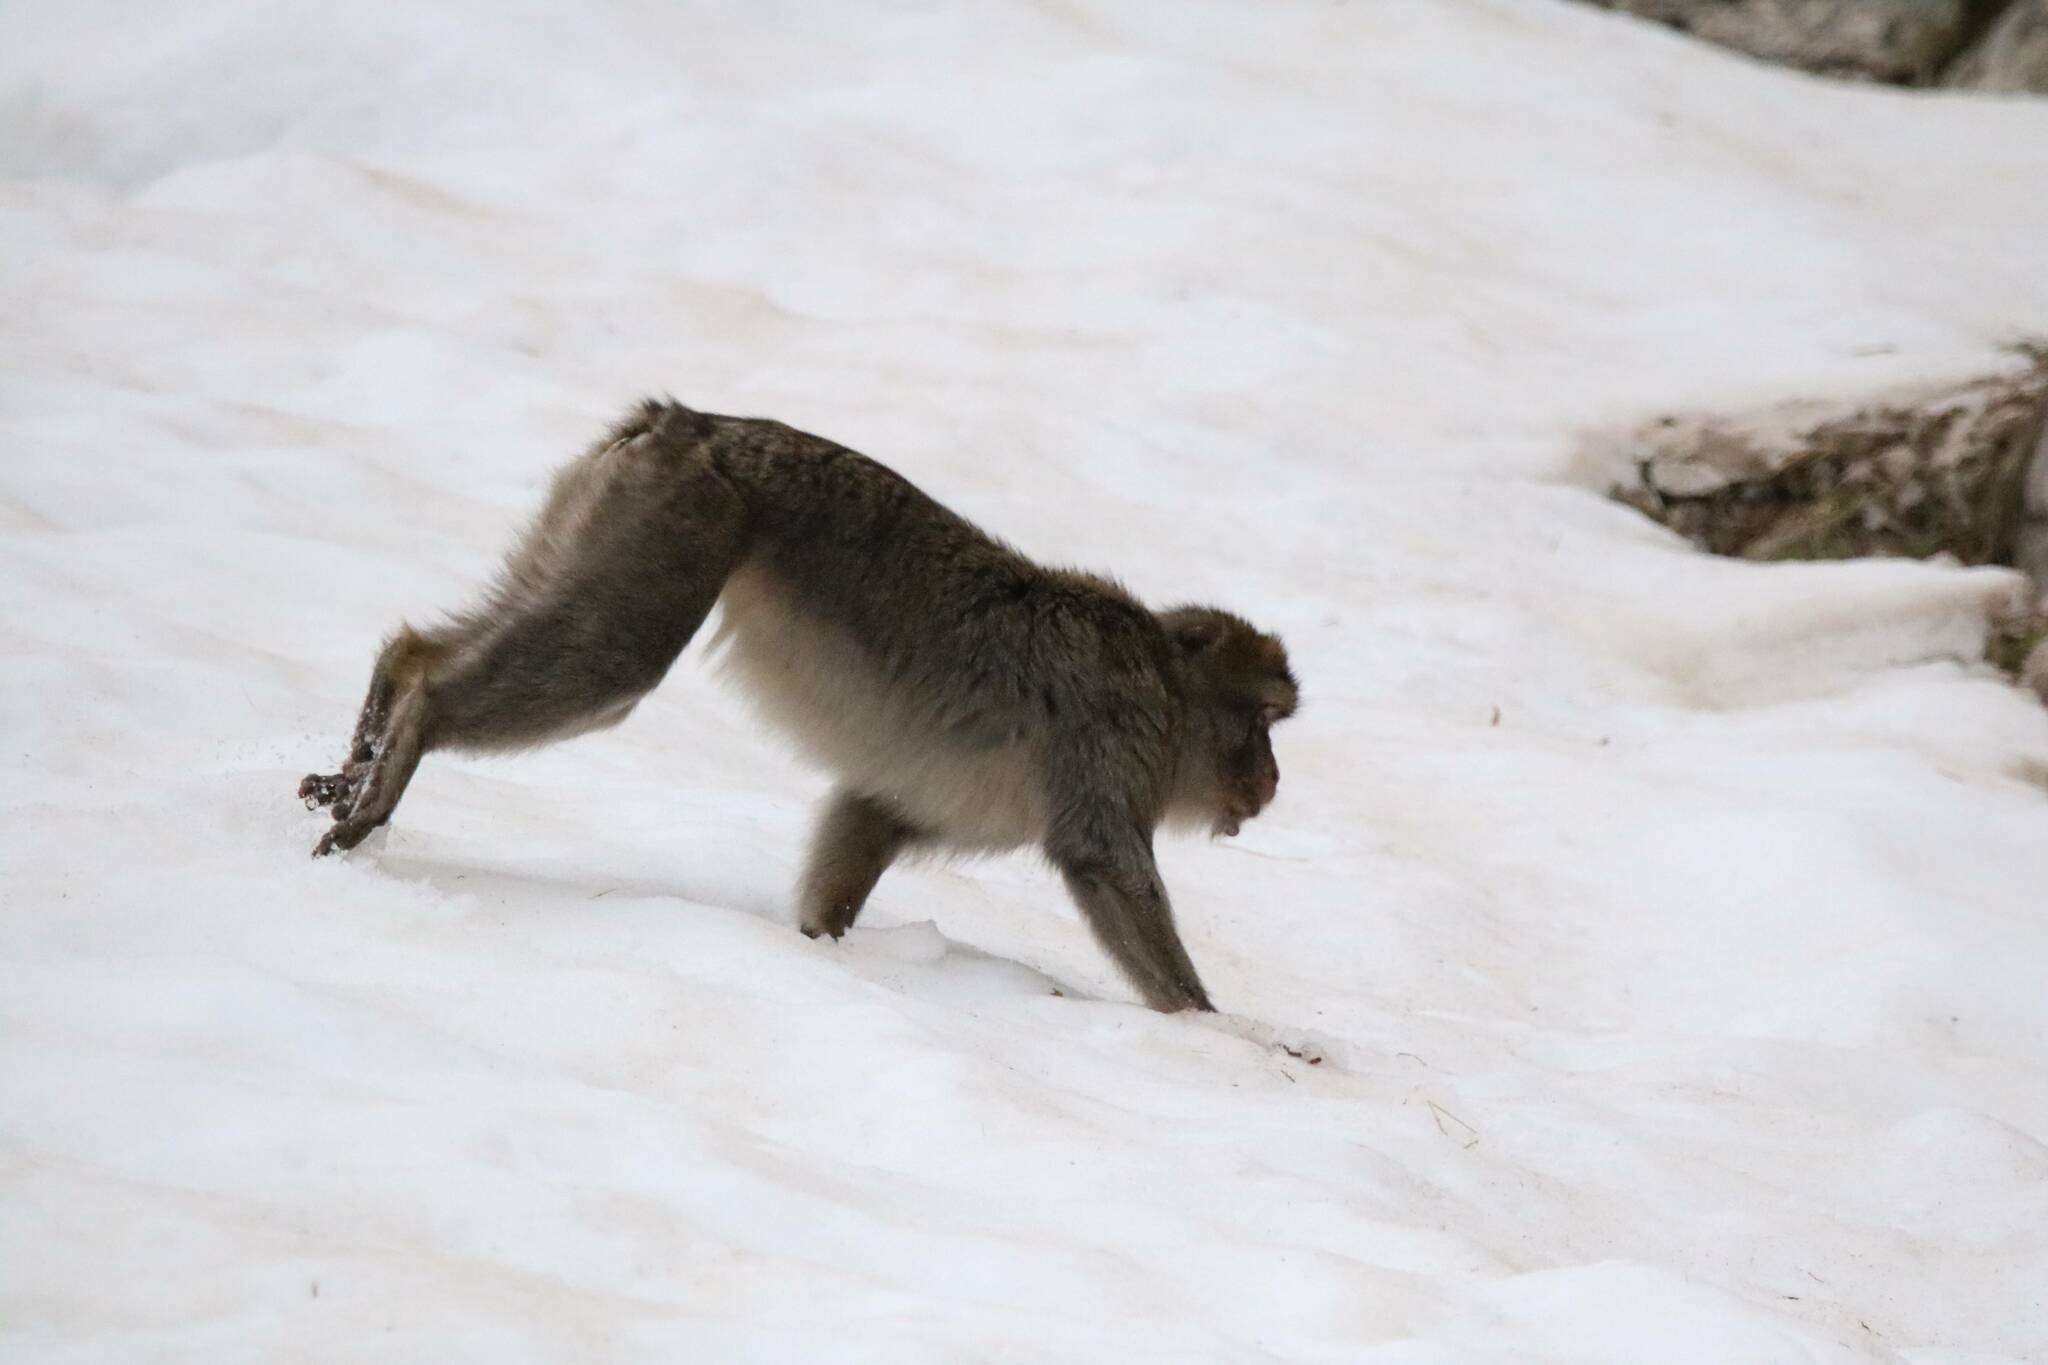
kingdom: Animalia
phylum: Chordata
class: Mammalia
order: Primates
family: Cercopithecidae
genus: Macaca
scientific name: Macaca sylvanus
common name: Barbary macaque
